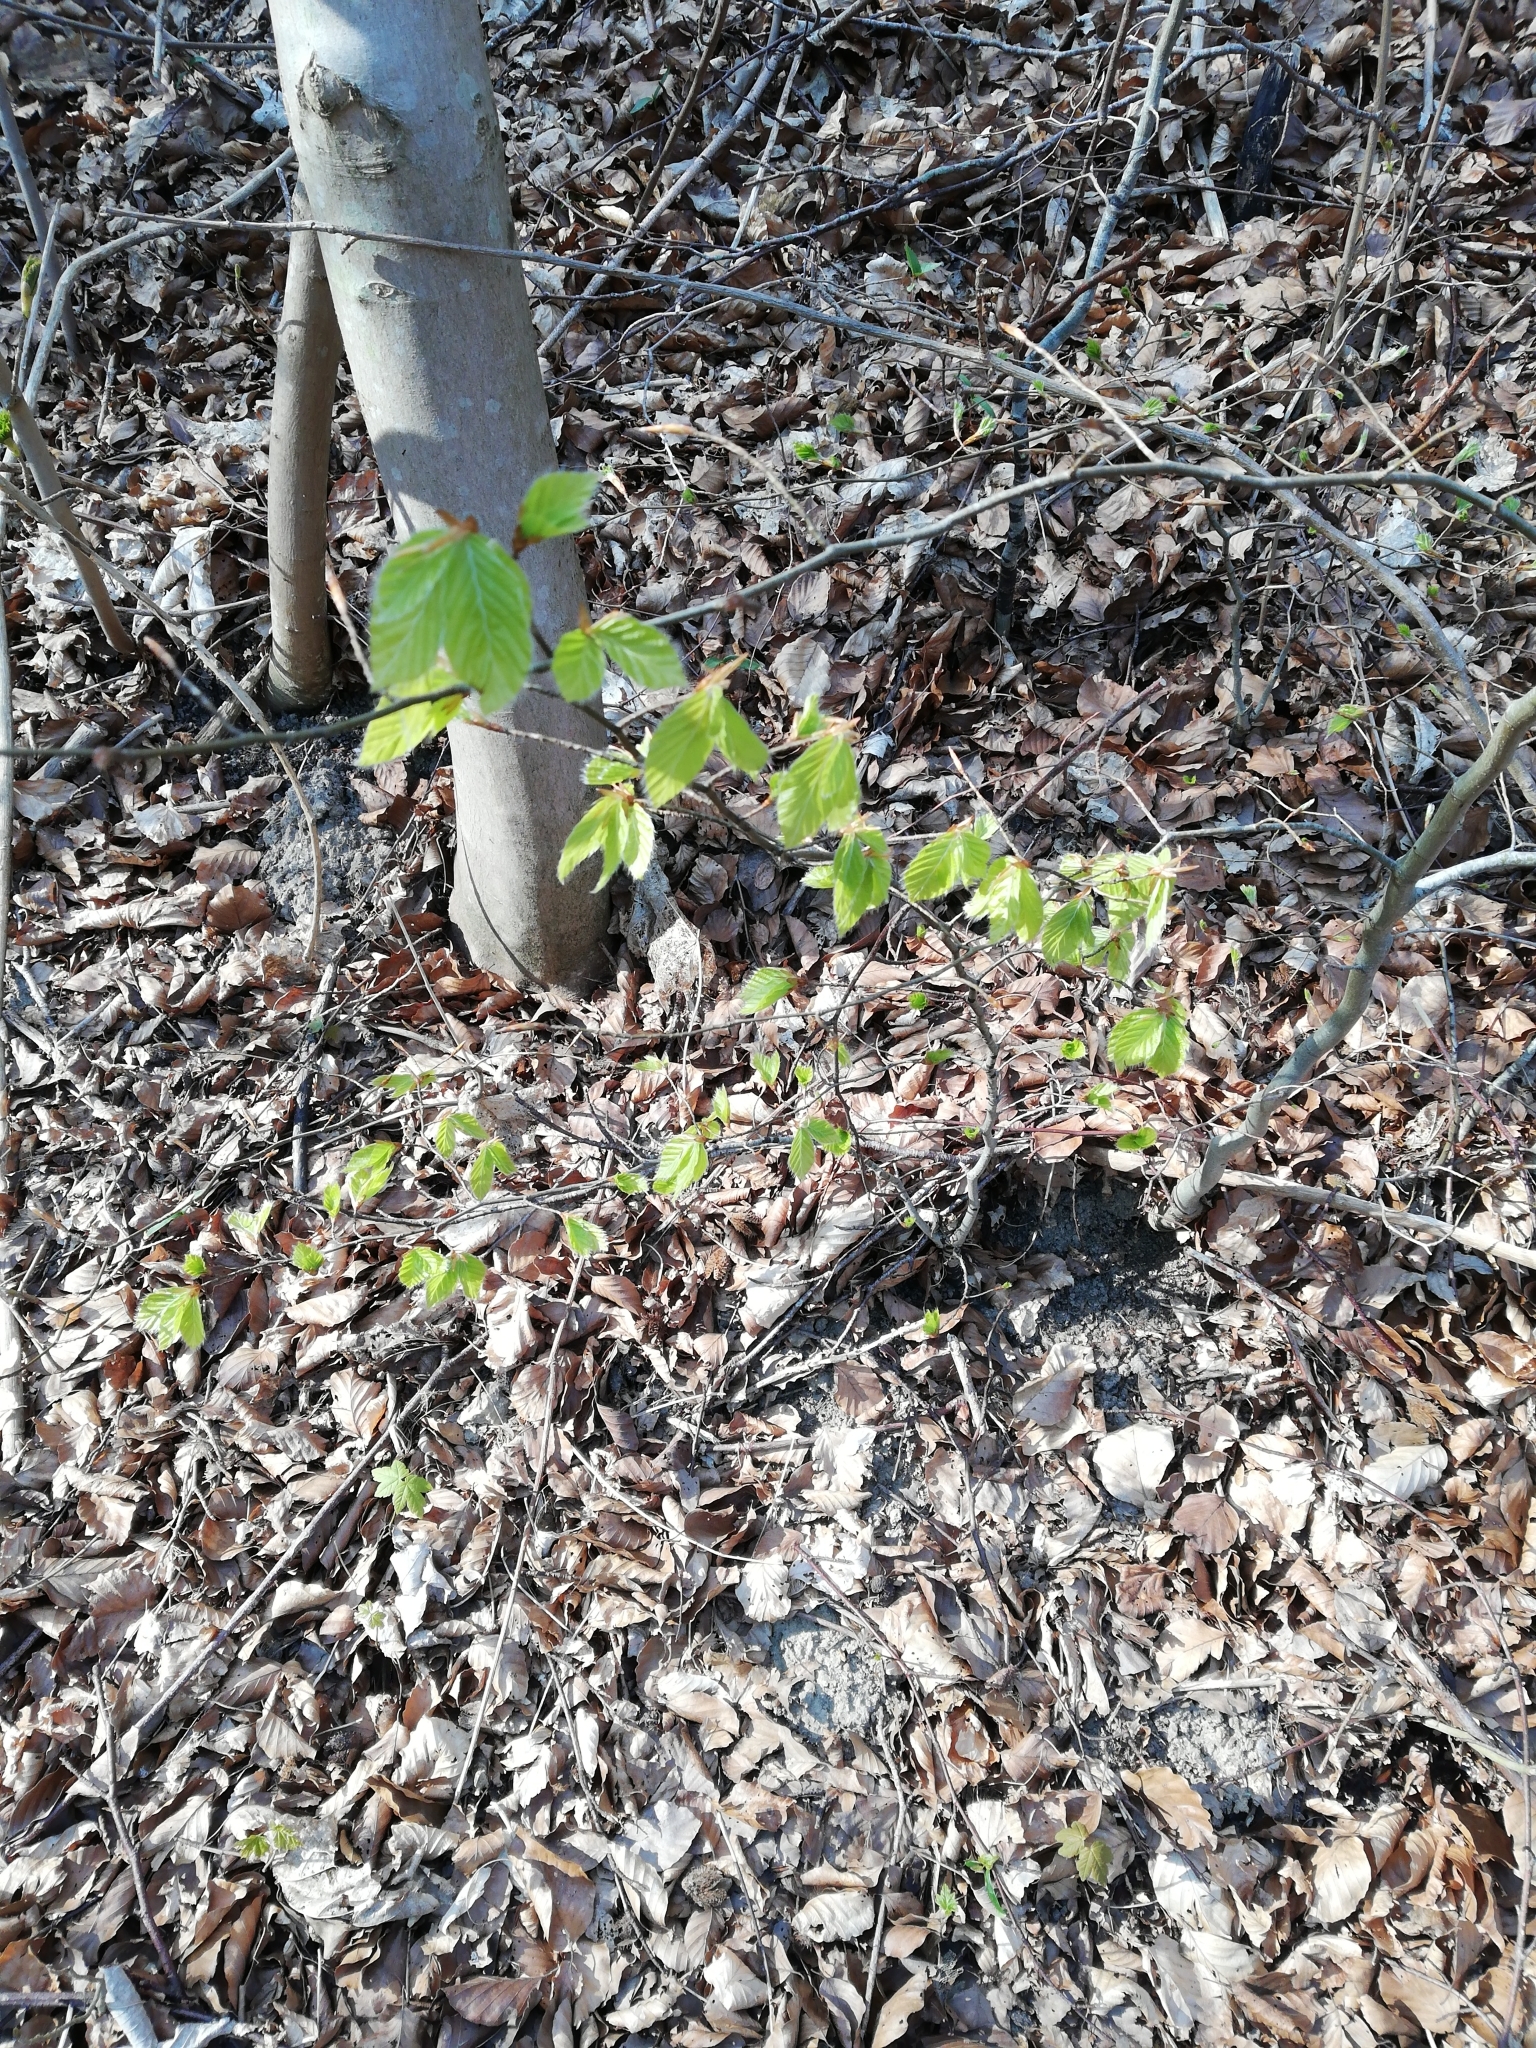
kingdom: Plantae
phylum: Tracheophyta
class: Magnoliopsida
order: Fagales
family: Fagaceae
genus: Fagus
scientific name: Fagus sylvatica
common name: Beech
